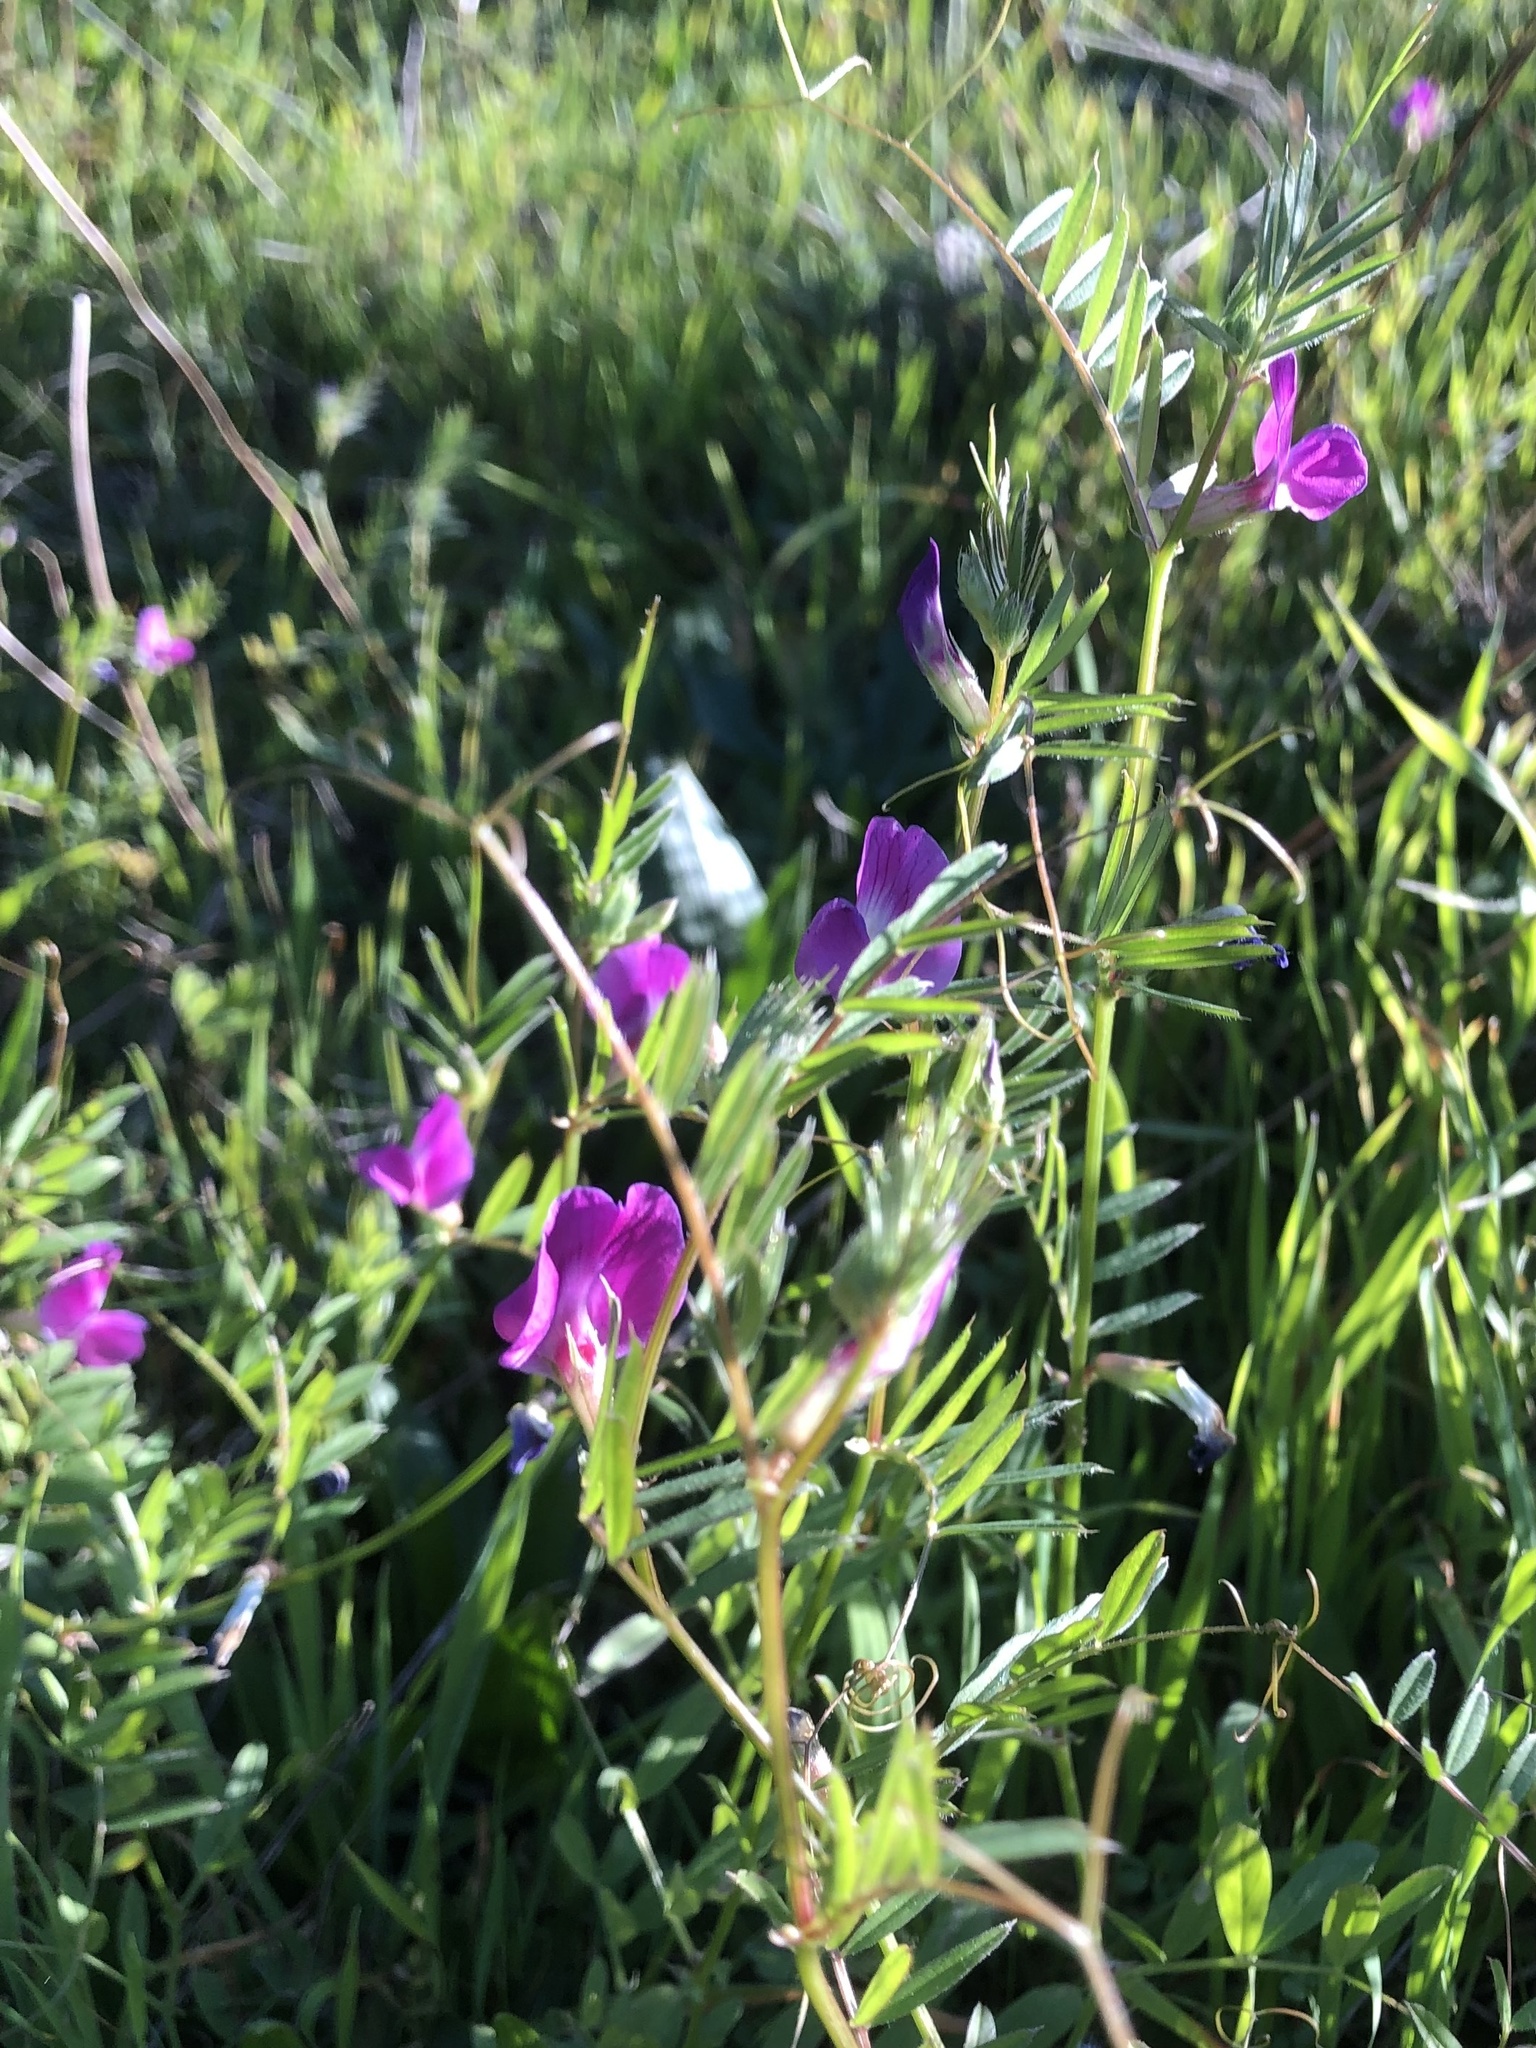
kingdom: Plantae
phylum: Tracheophyta
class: Magnoliopsida
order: Fabales
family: Fabaceae
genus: Vicia
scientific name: Vicia sativa
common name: Garden vetch
